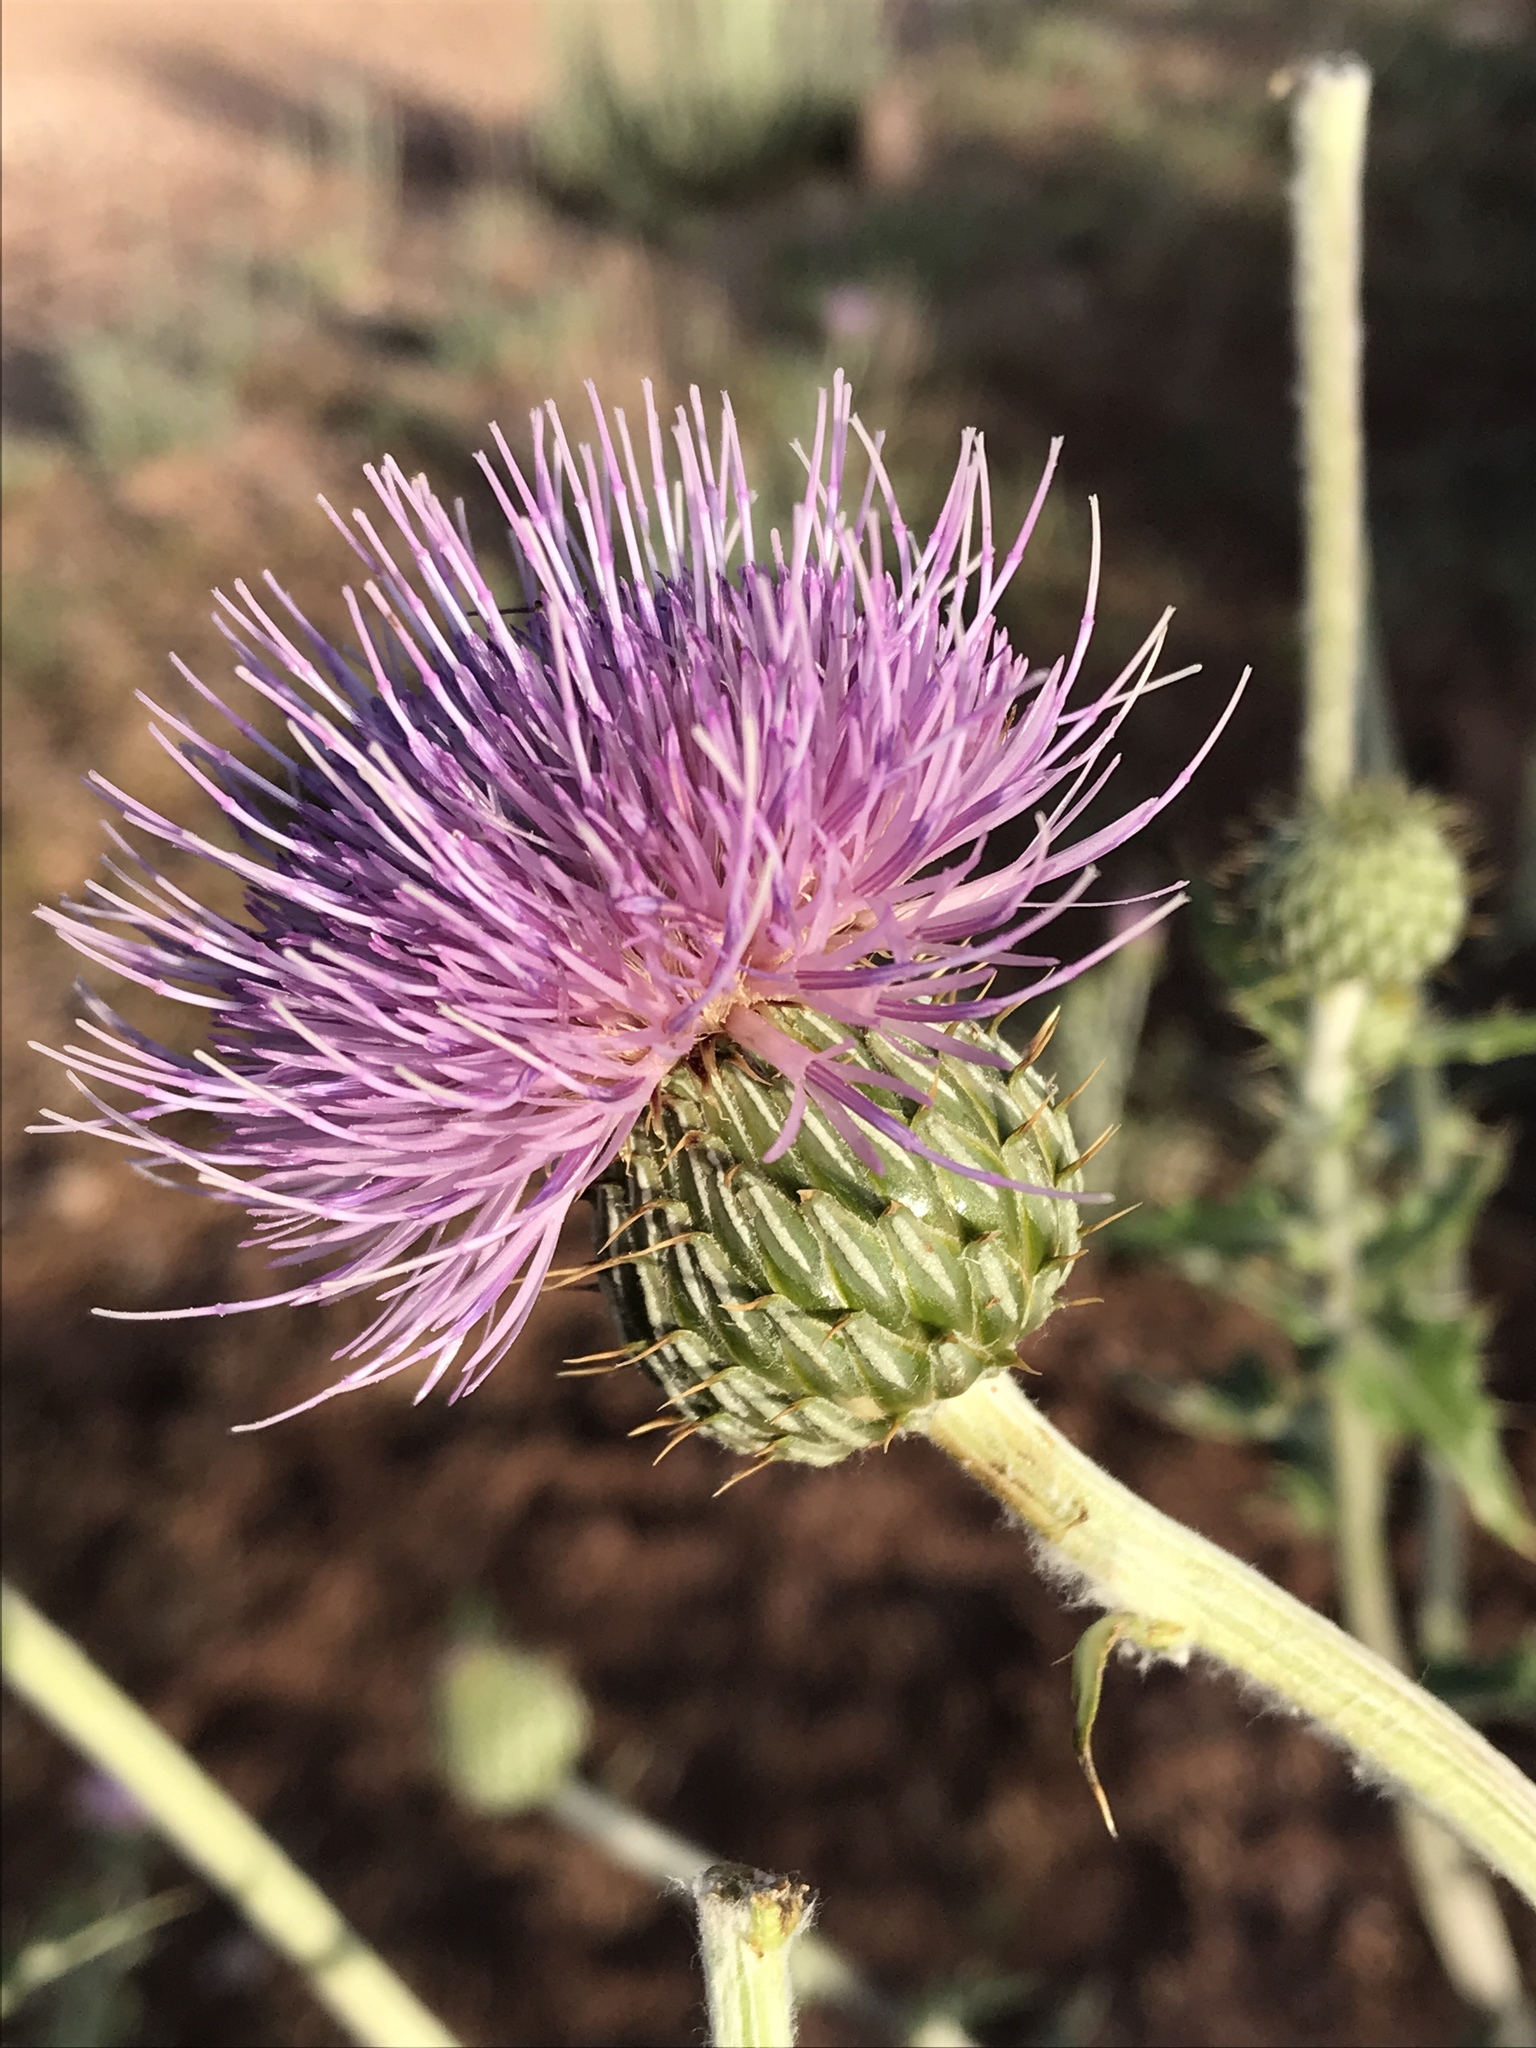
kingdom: Plantae
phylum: Tracheophyta
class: Magnoliopsida
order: Asterales
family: Asteraceae
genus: Cirsium
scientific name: Cirsium neomexicanum
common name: New mexico thistle
